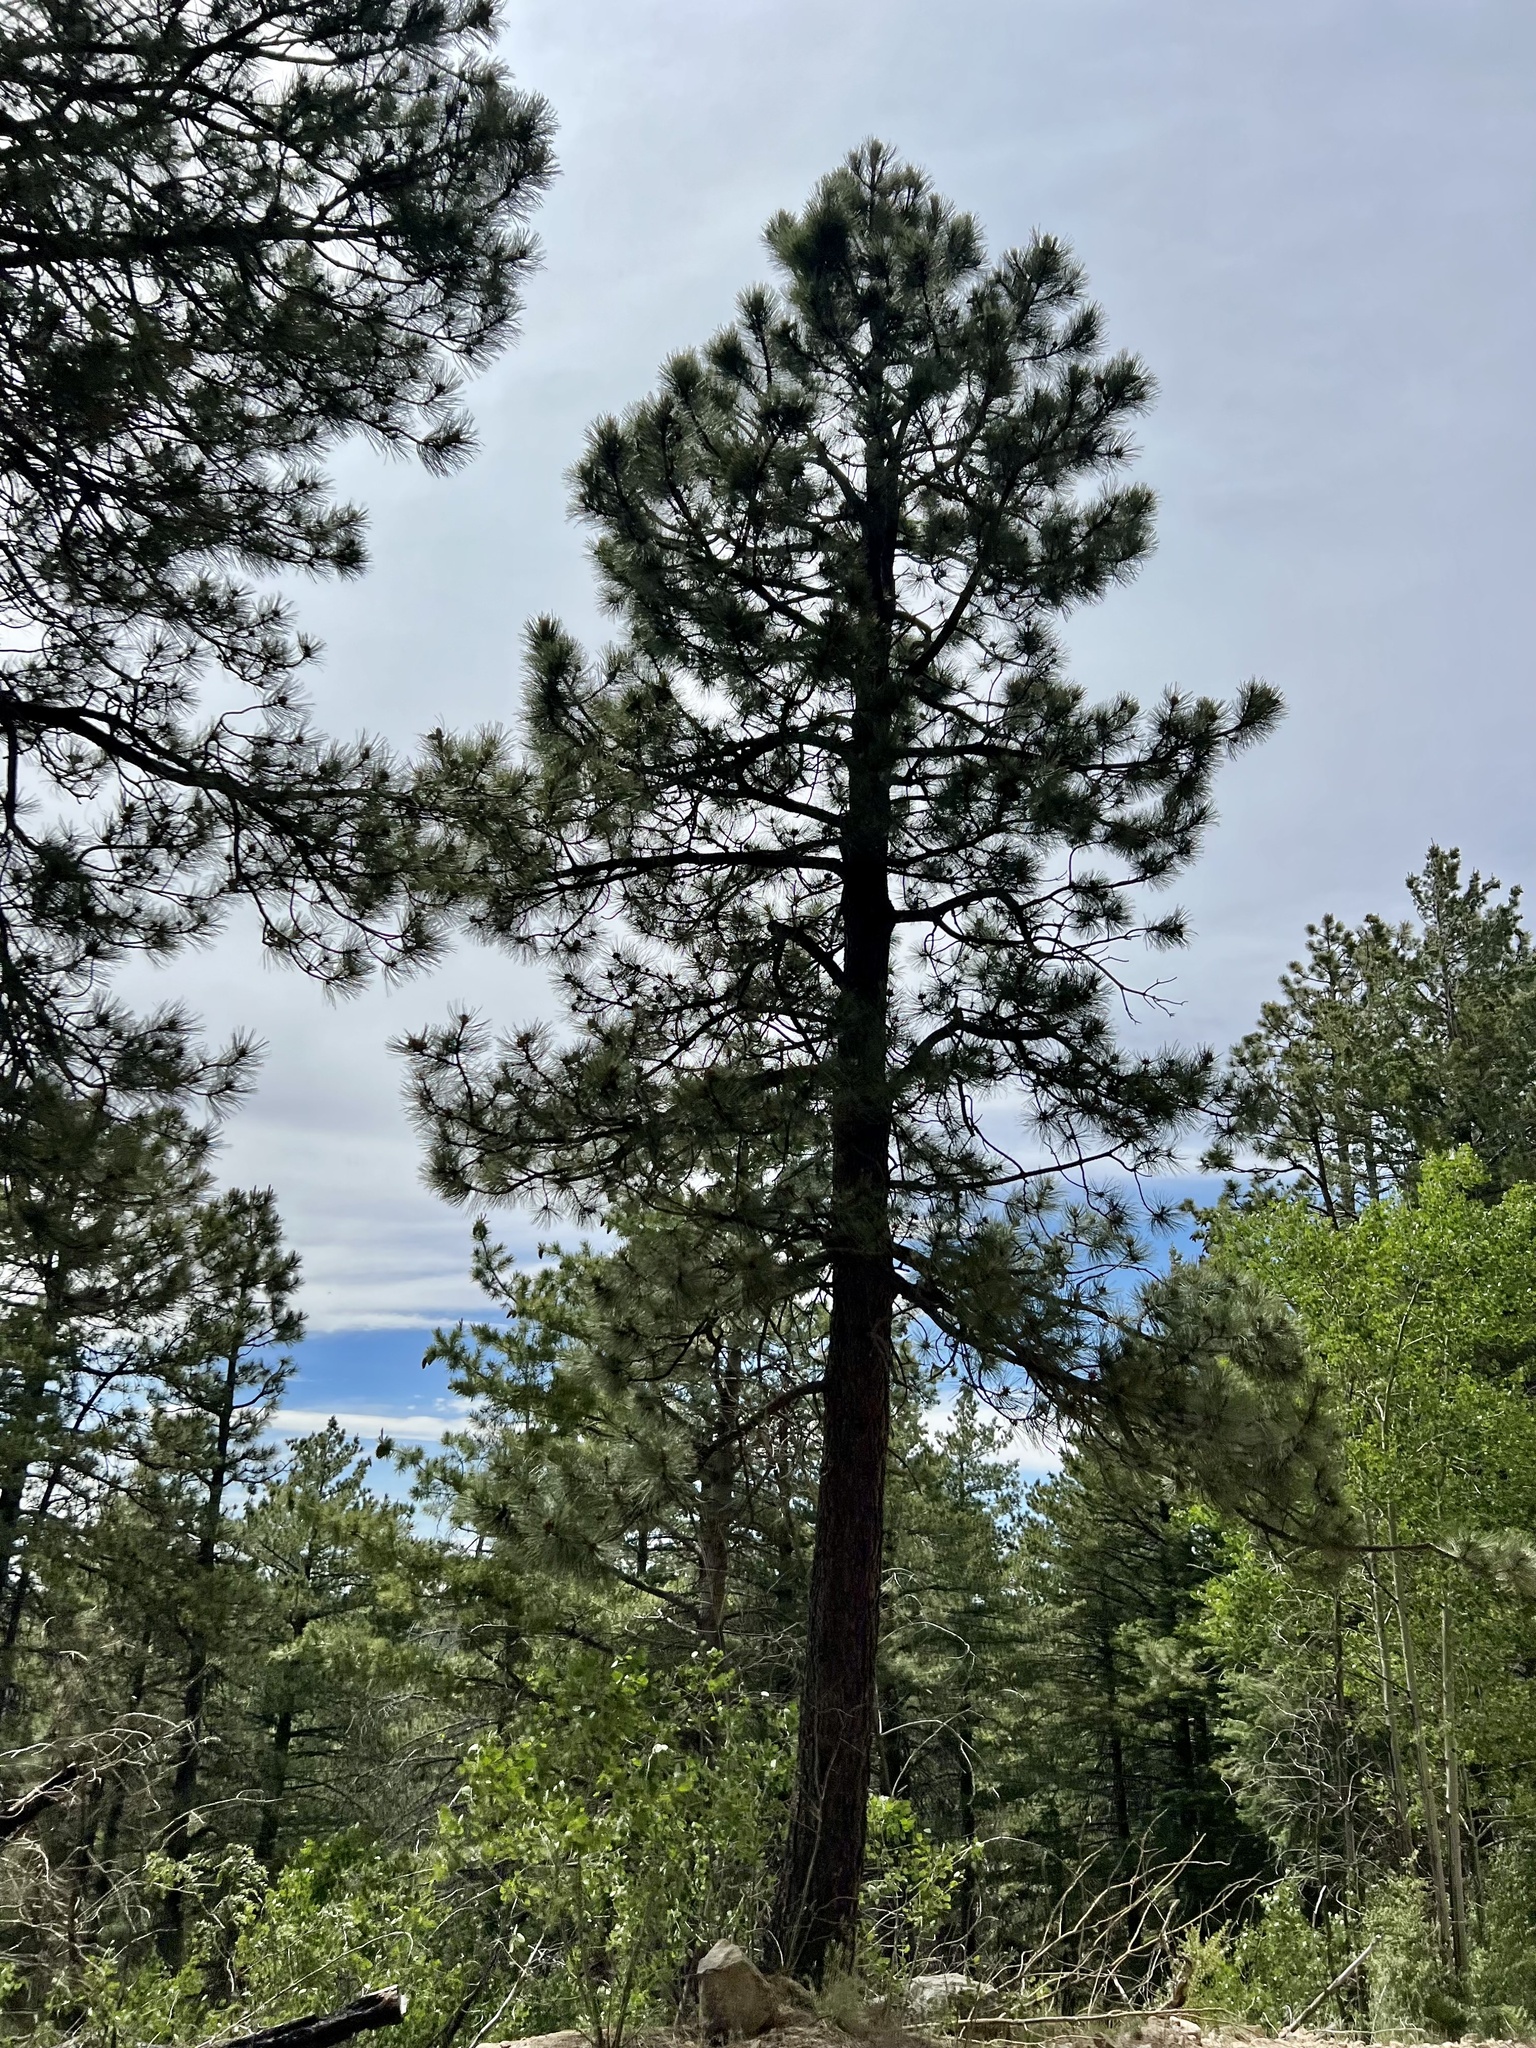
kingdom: Plantae
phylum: Tracheophyta
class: Pinopsida
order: Pinales
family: Pinaceae
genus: Pinus
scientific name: Pinus ponderosa
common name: Western yellow-pine
